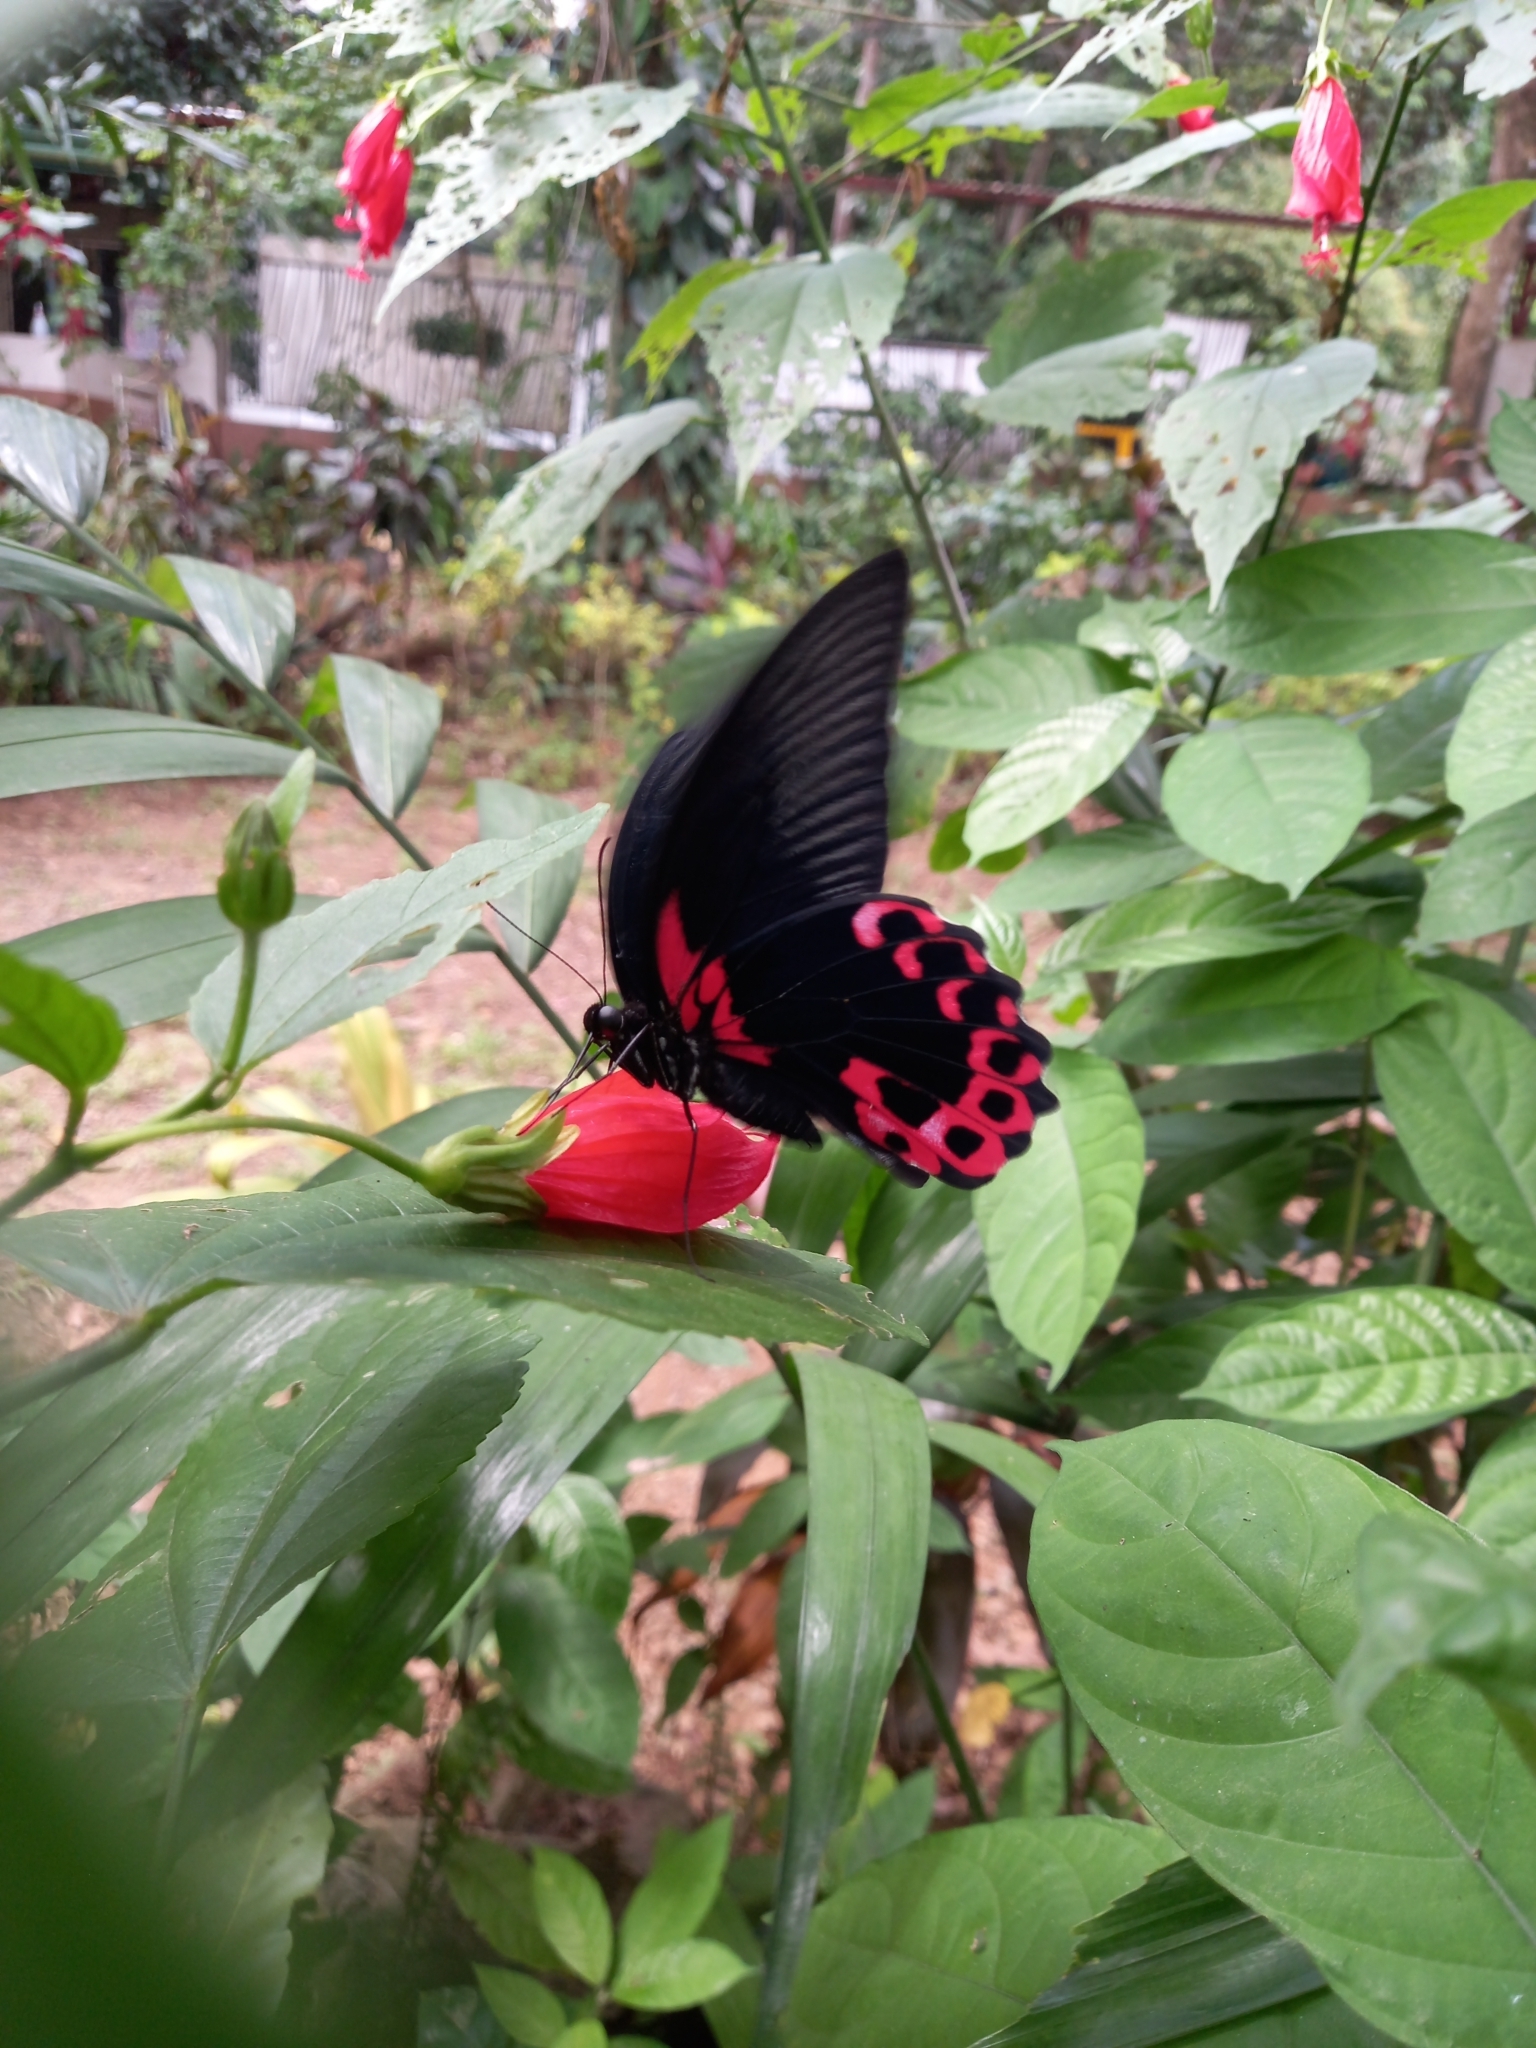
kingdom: Animalia
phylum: Arthropoda
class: Insecta
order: Lepidoptera
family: Papilionidae
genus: Papilio
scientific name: Papilio deiphobus
